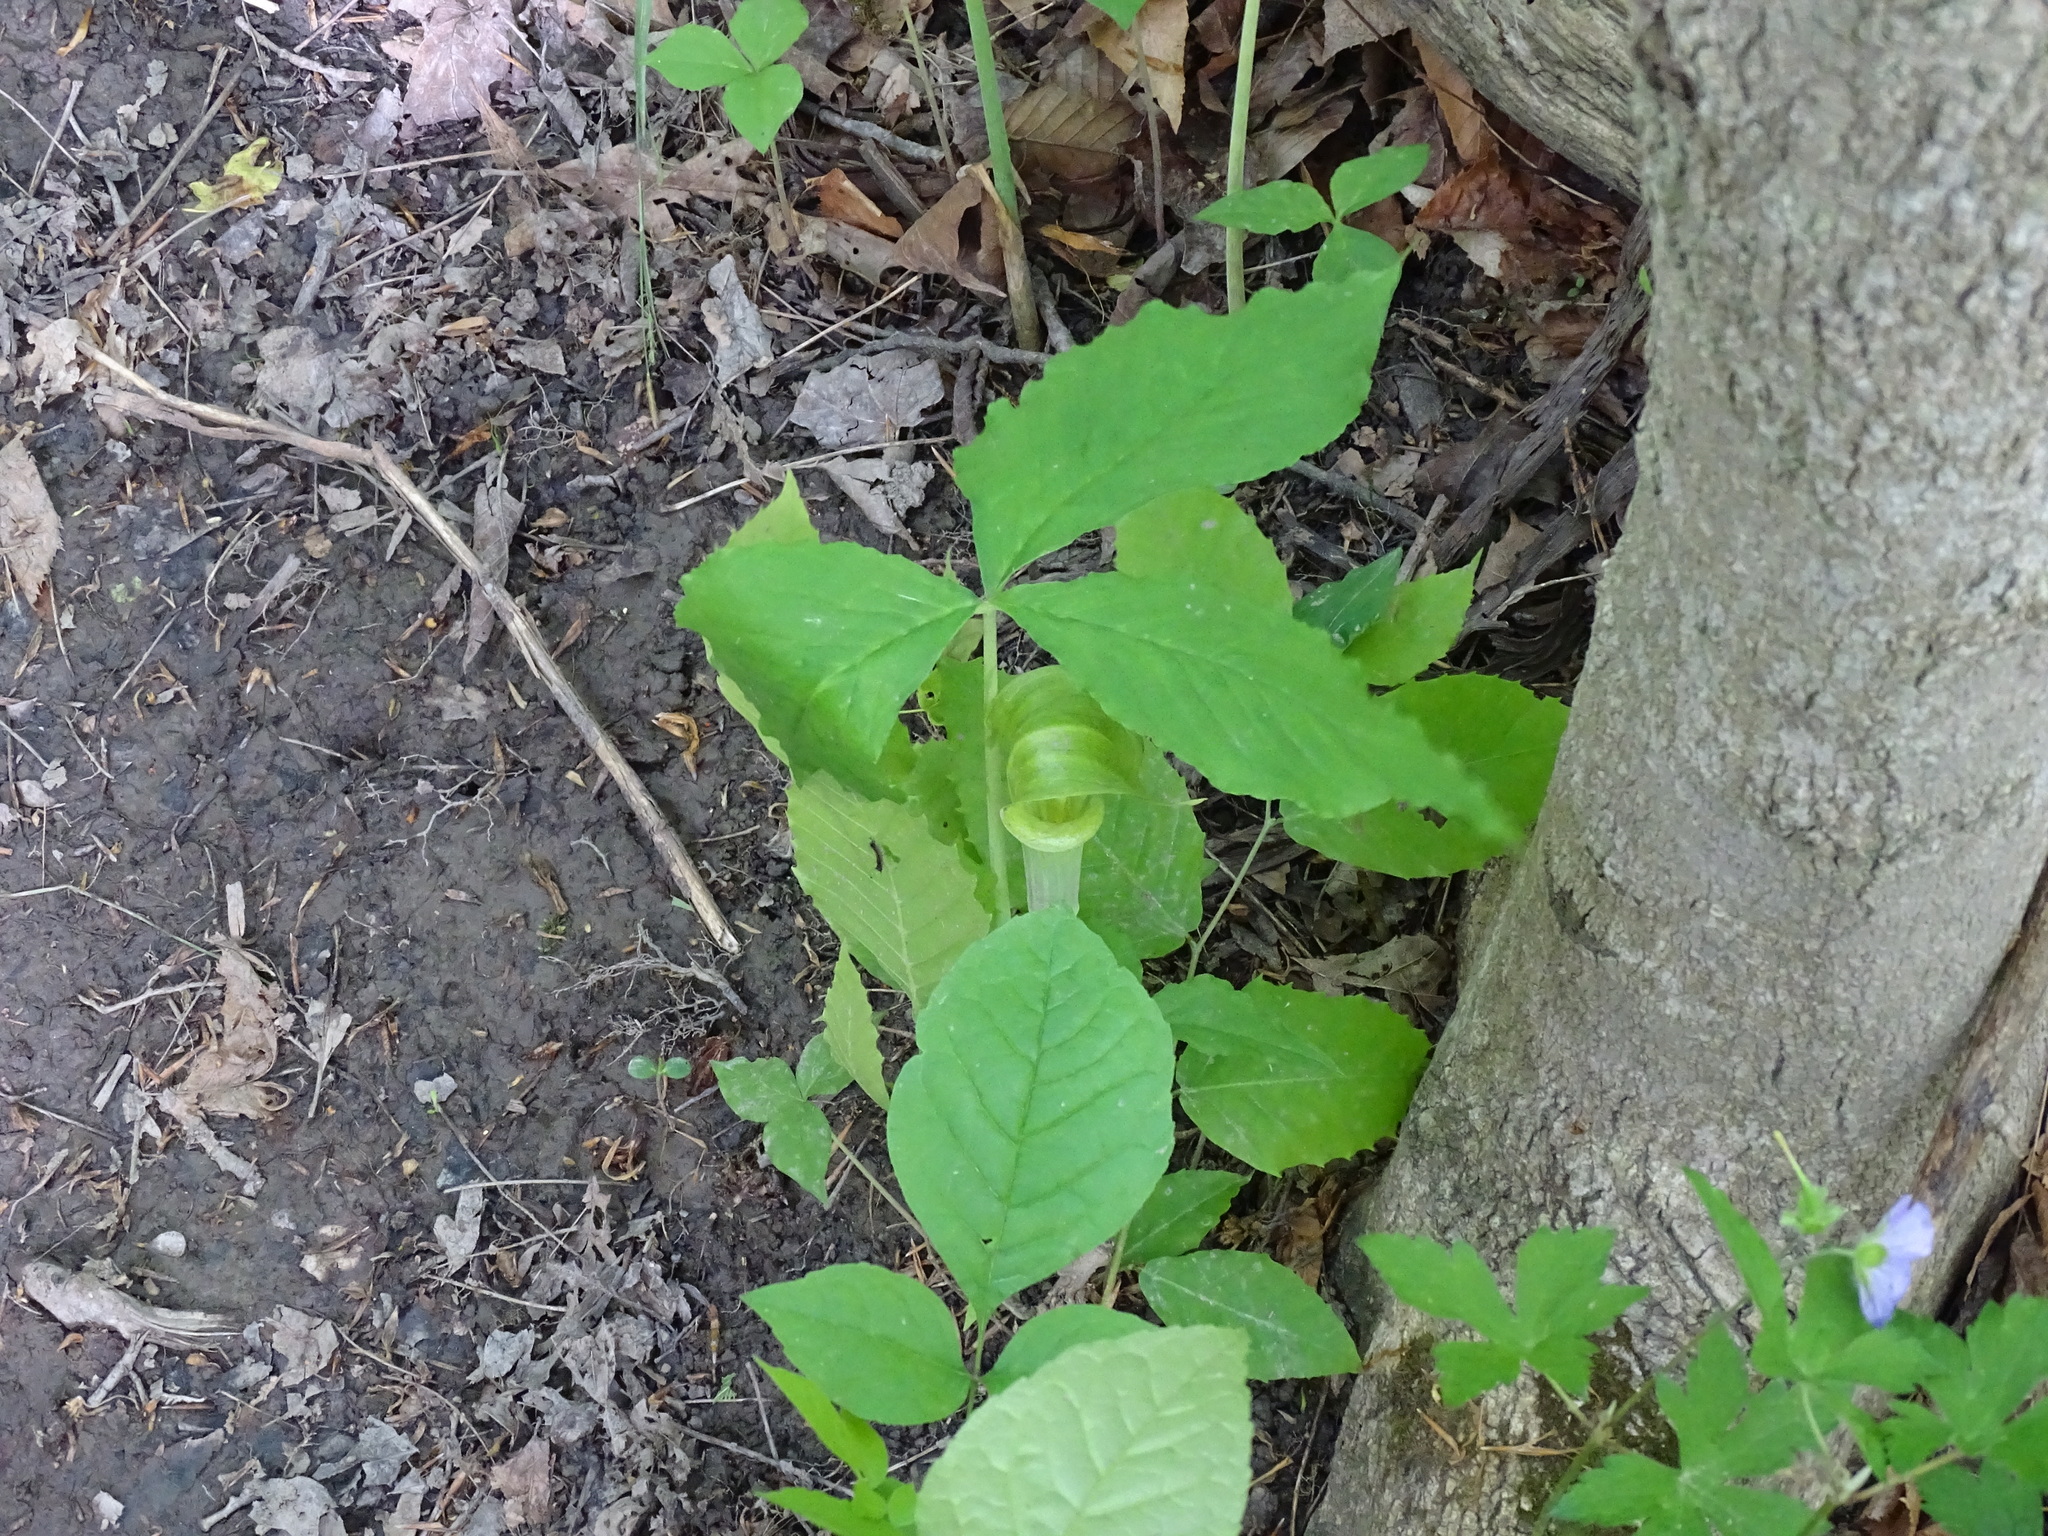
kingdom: Plantae
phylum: Tracheophyta
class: Liliopsida
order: Alismatales
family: Araceae
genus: Arisaema
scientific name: Arisaema triphyllum
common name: Jack-in-the-pulpit
